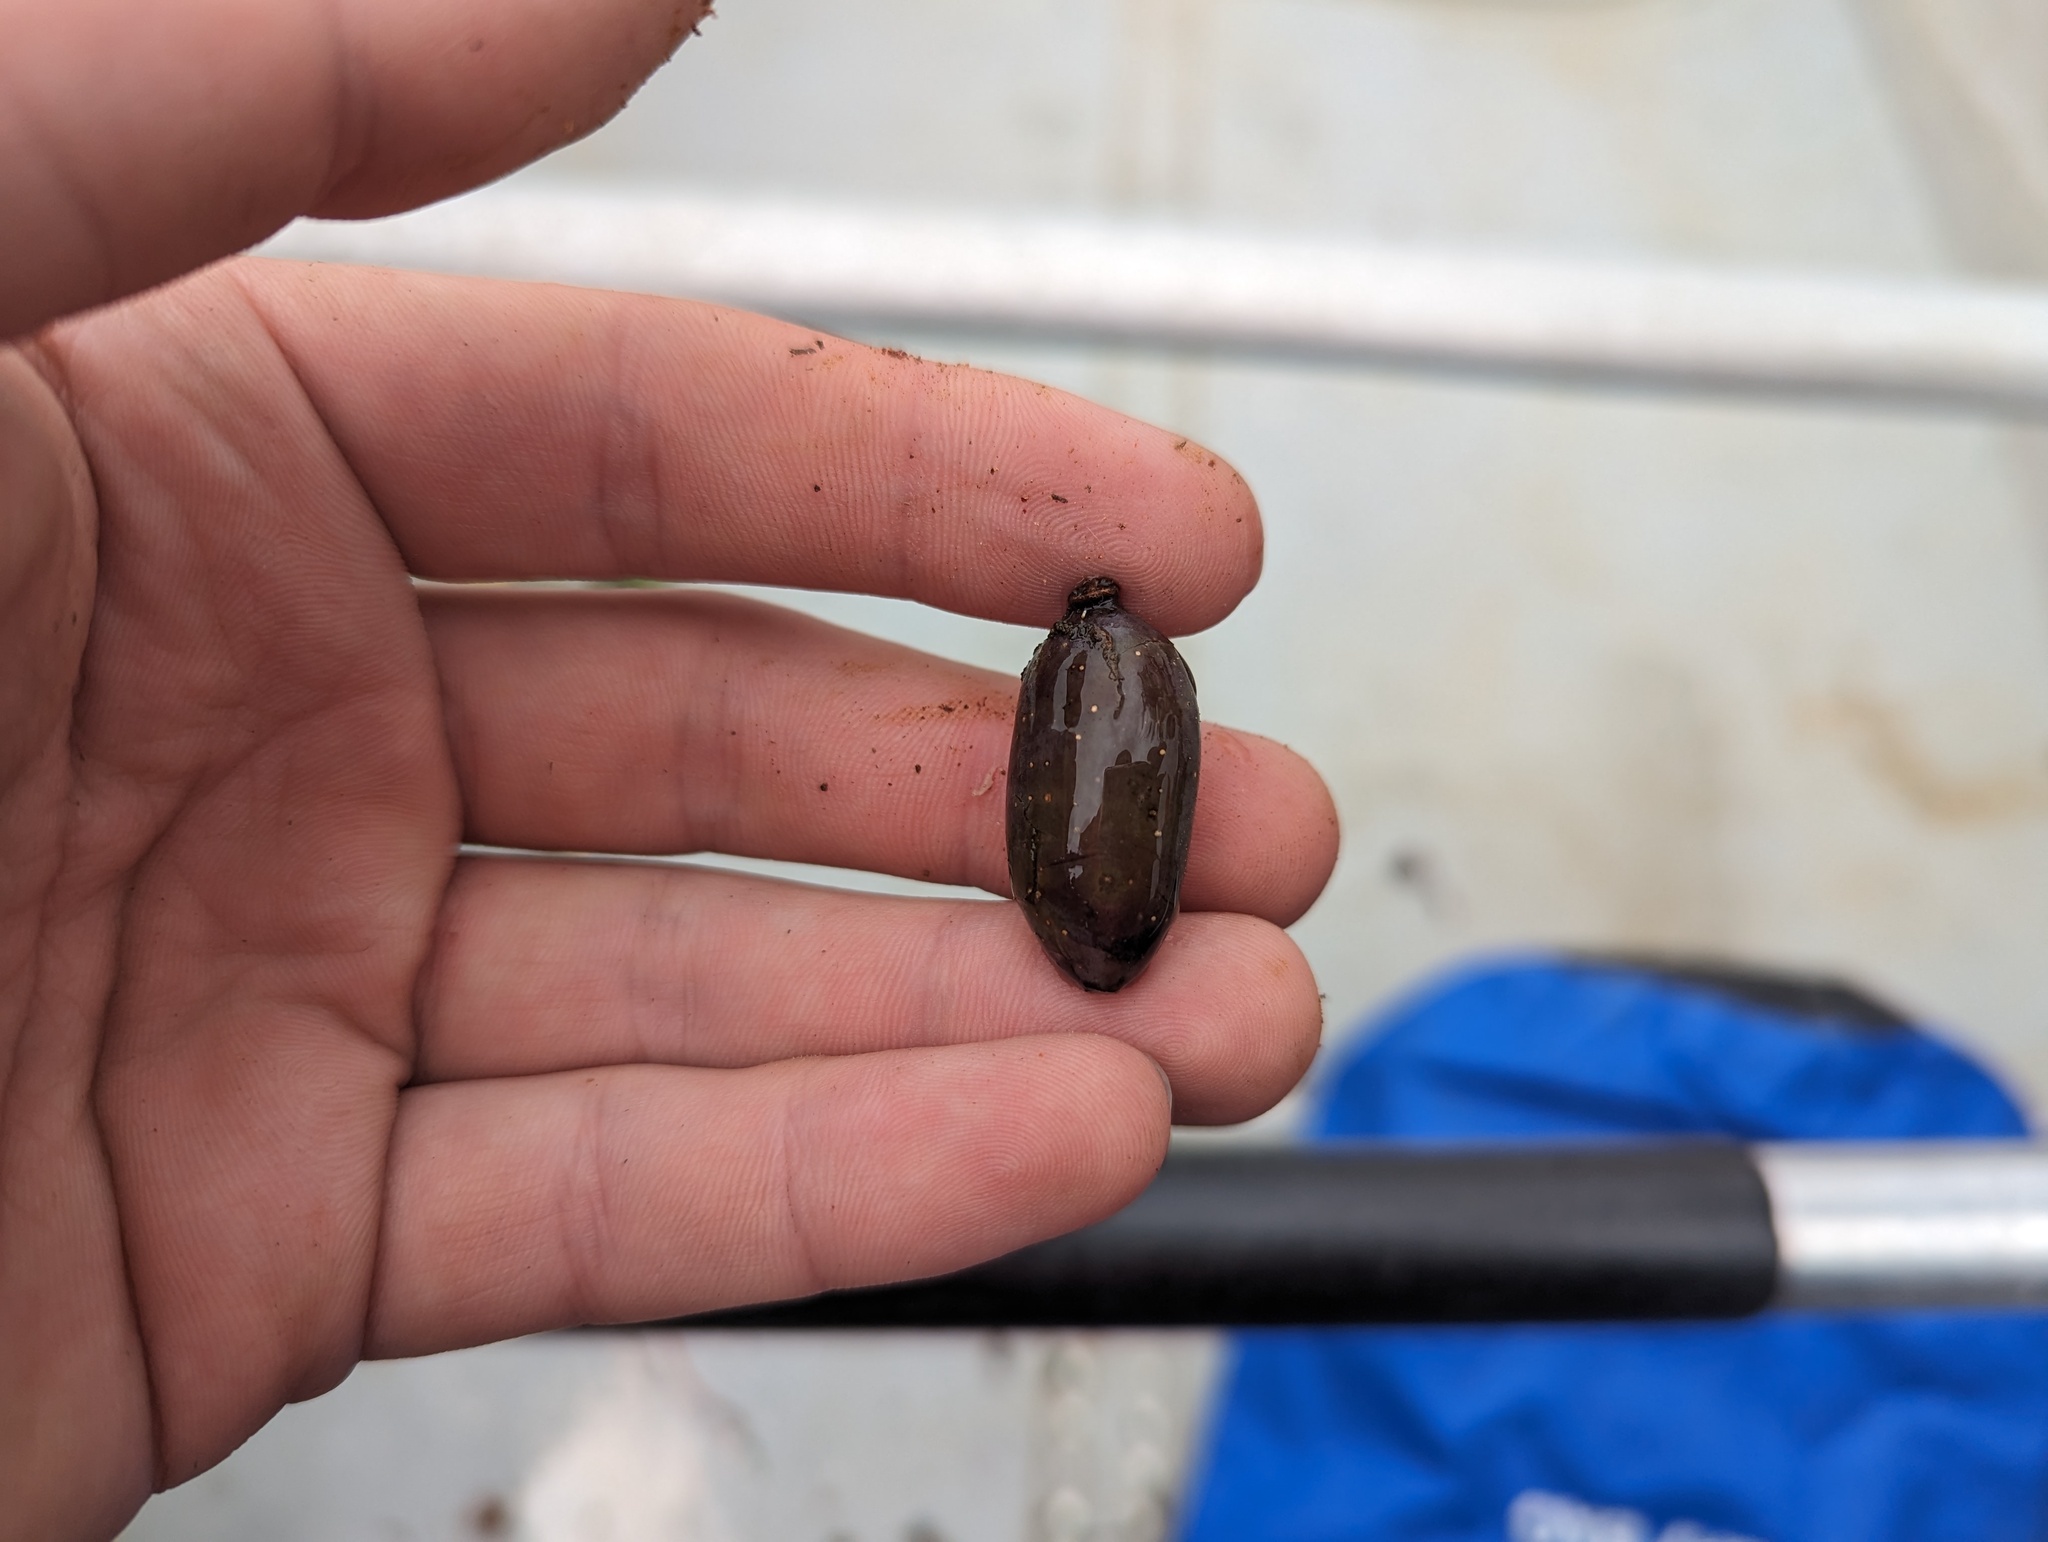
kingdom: Plantae
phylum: Tracheophyta
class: Magnoliopsida
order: Cornales
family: Nyssaceae
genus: Nyssa
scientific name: Nyssa aquatica
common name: Swamp tupelo
